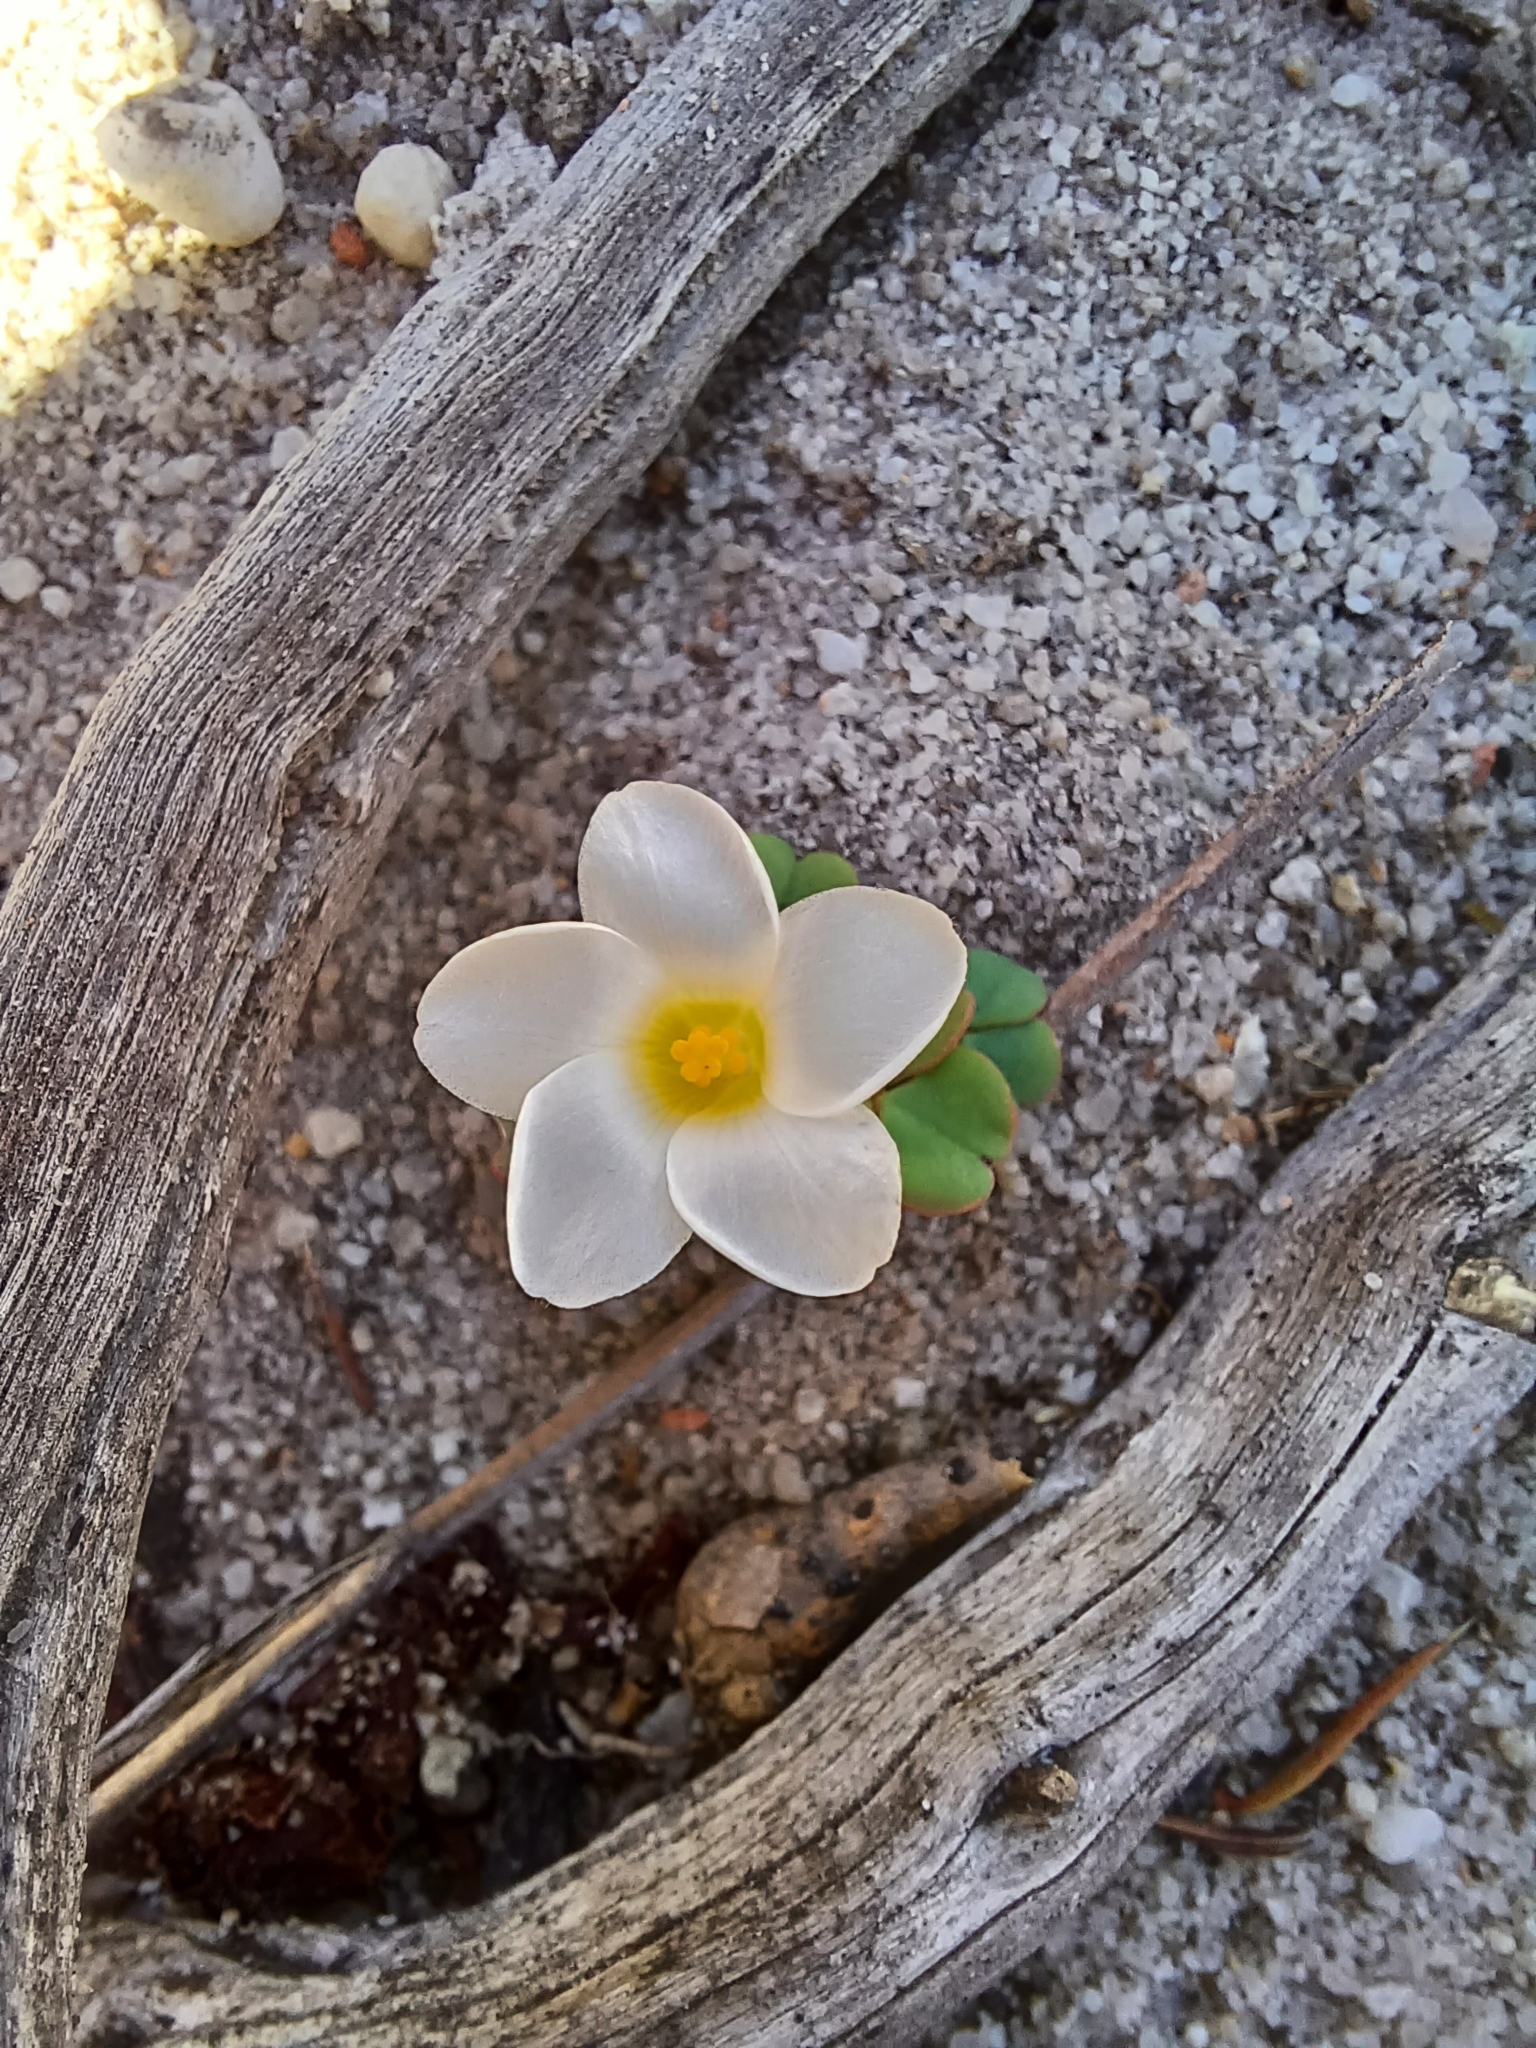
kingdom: Plantae
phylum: Tracheophyta
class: Magnoliopsida
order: Oxalidales
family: Oxalidaceae
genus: Oxalis
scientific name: Oxalis depressa
